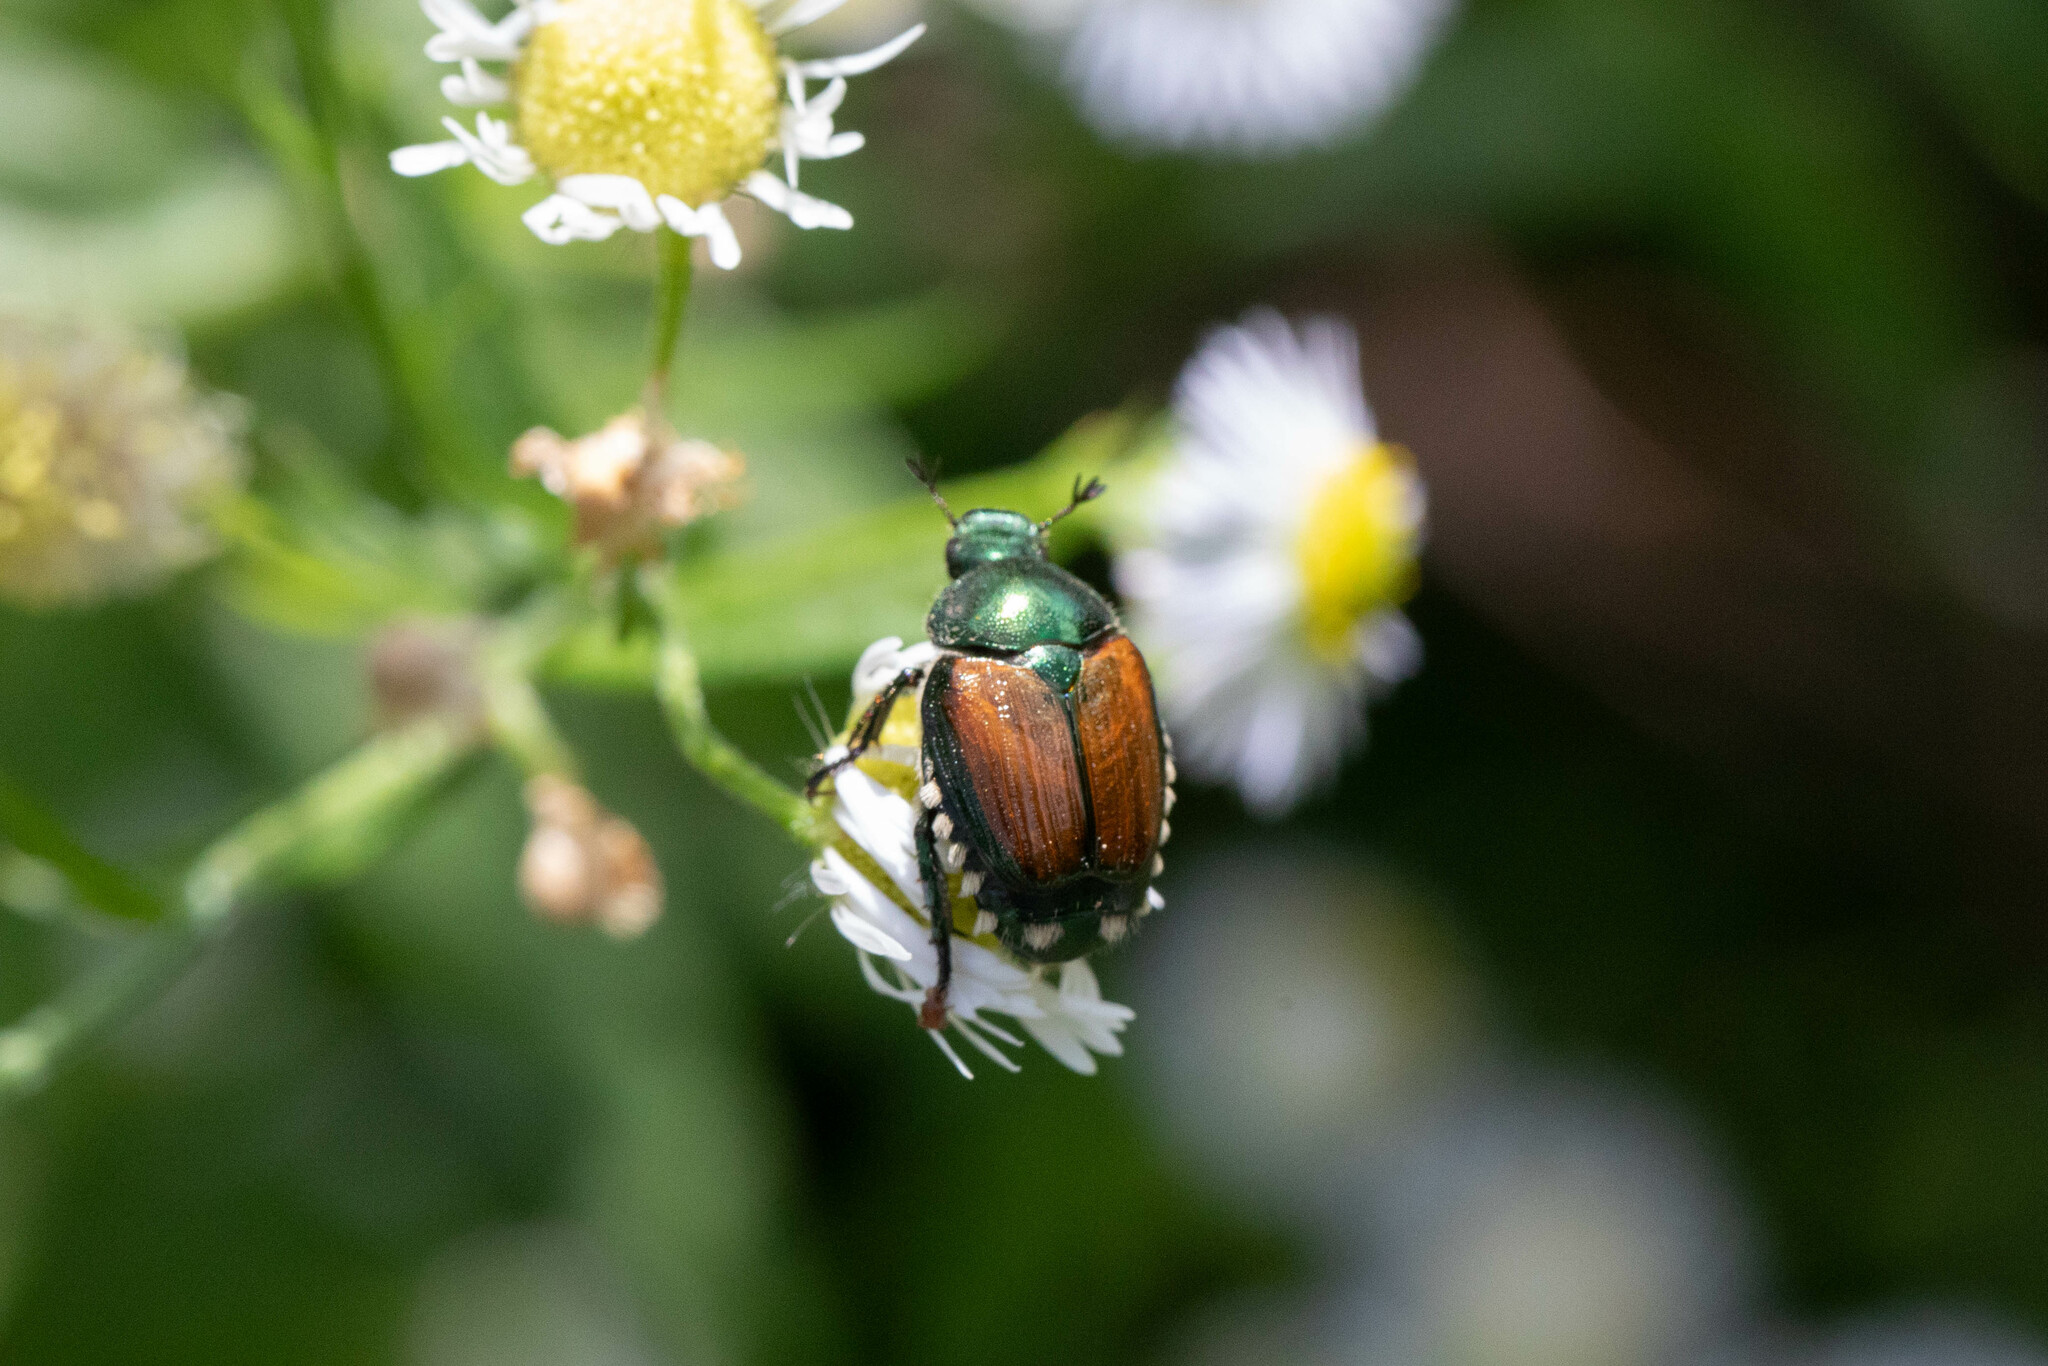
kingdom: Animalia
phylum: Arthropoda
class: Insecta
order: Coleoptera
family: Scarabaeidae
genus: Popillia
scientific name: Popillia japonica
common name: Japanese beetle
